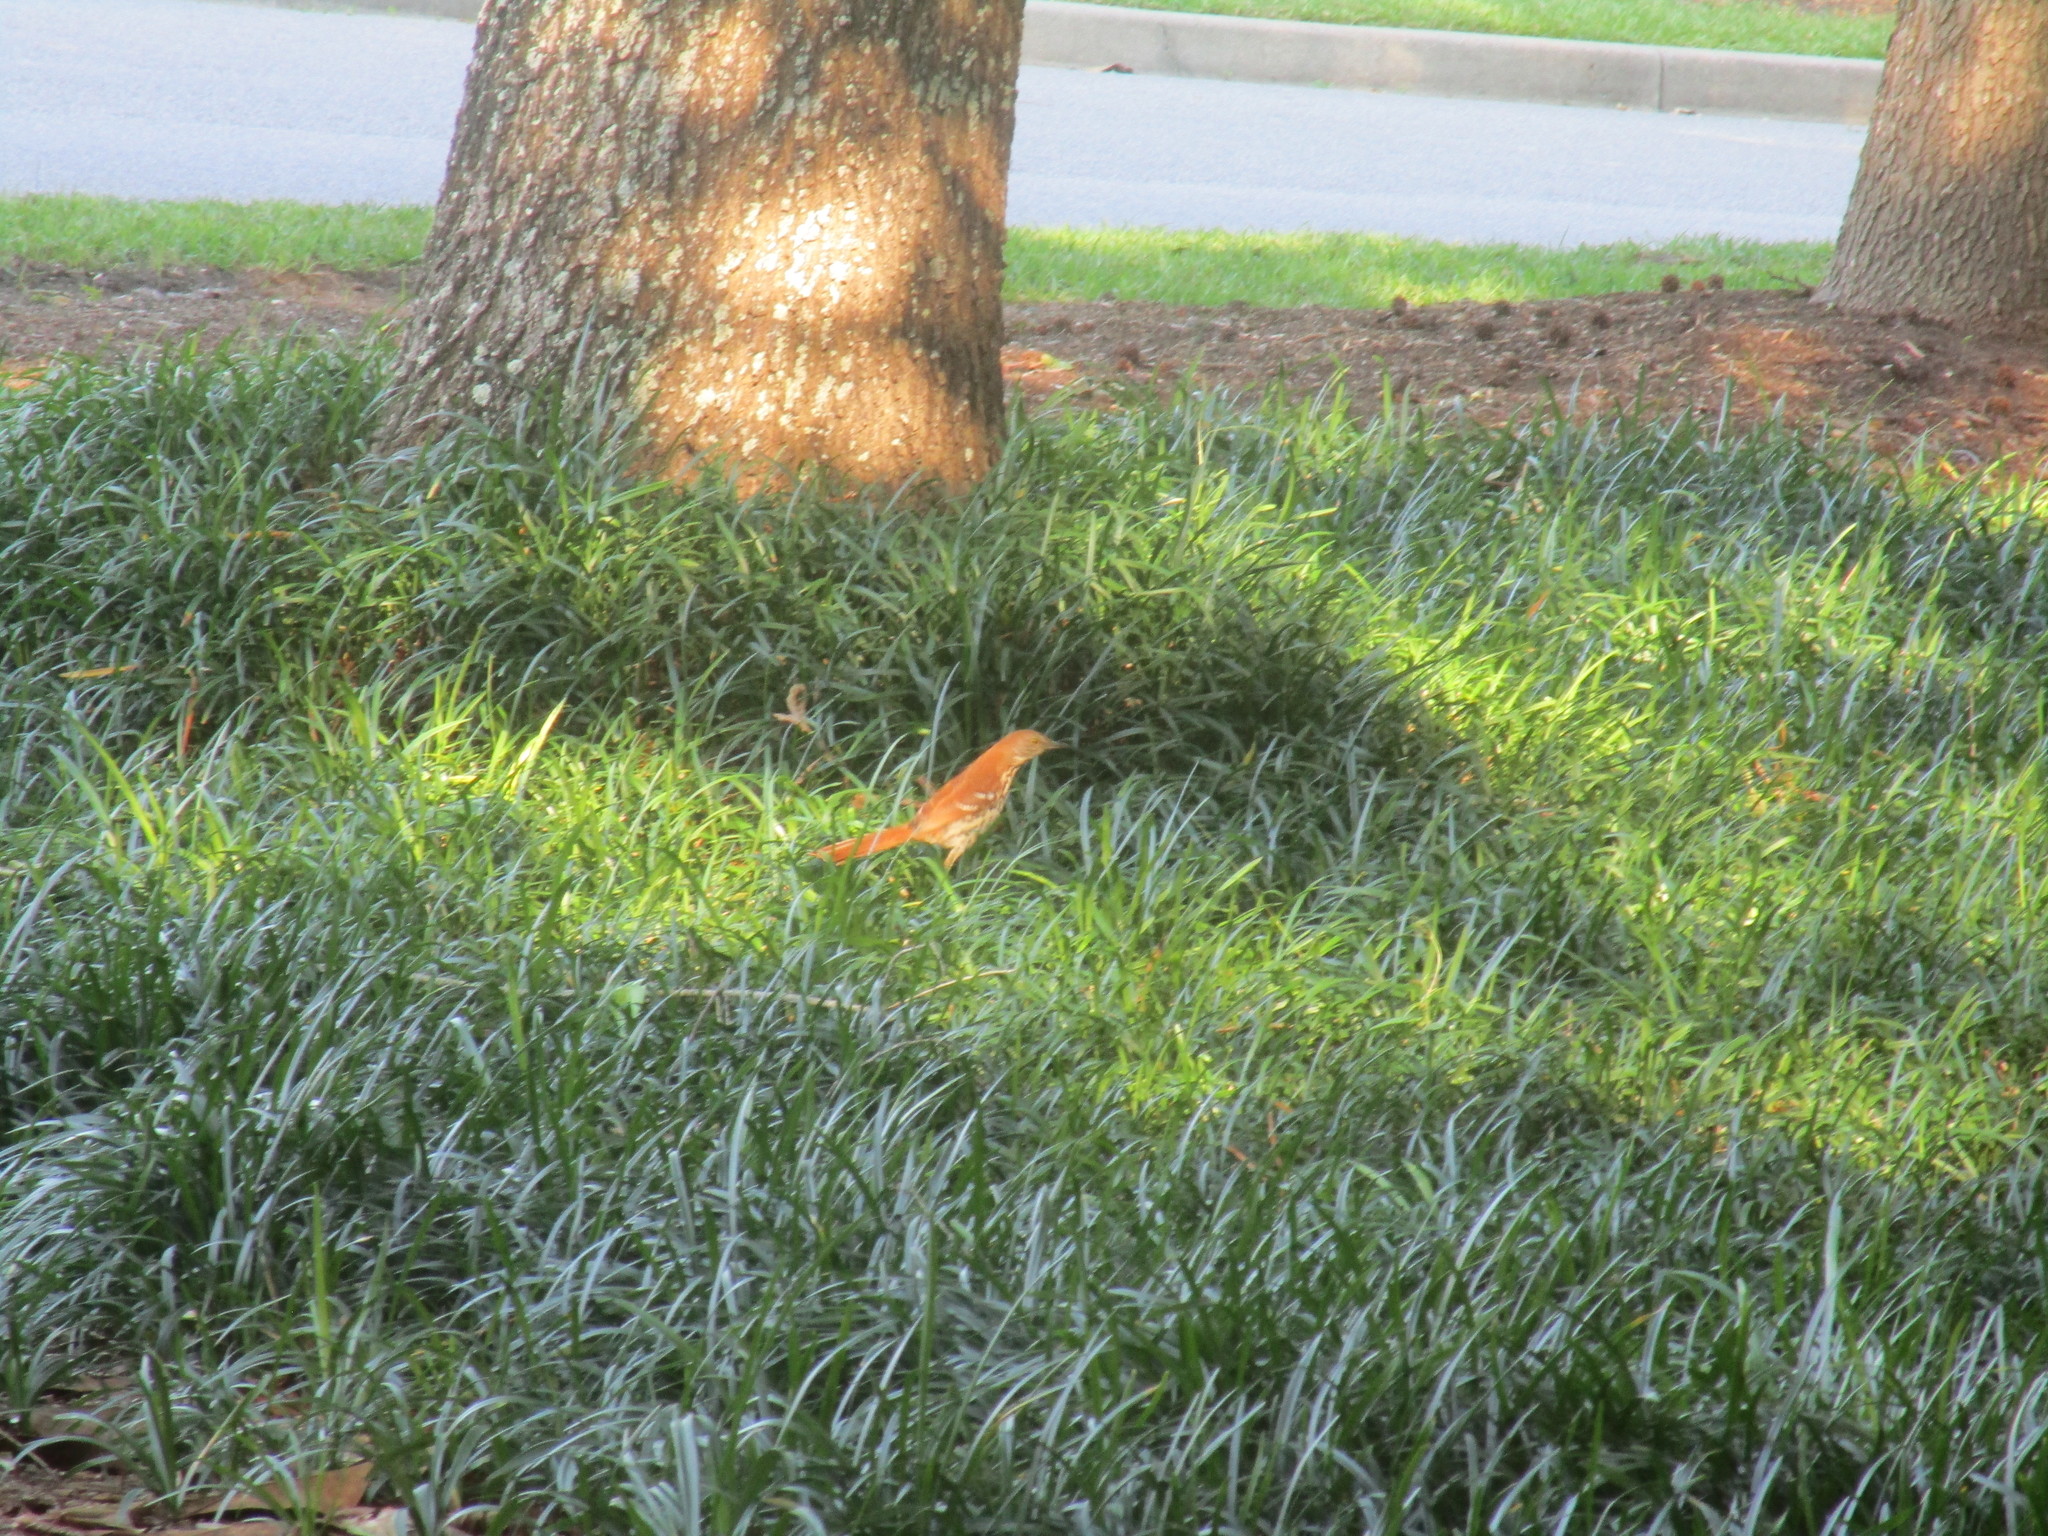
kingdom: Animalia
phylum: Chordata
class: Aves
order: Passeriformes
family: Mimidae
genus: Toxostoma
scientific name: Toxostoma rufum
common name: Brown thrasher
